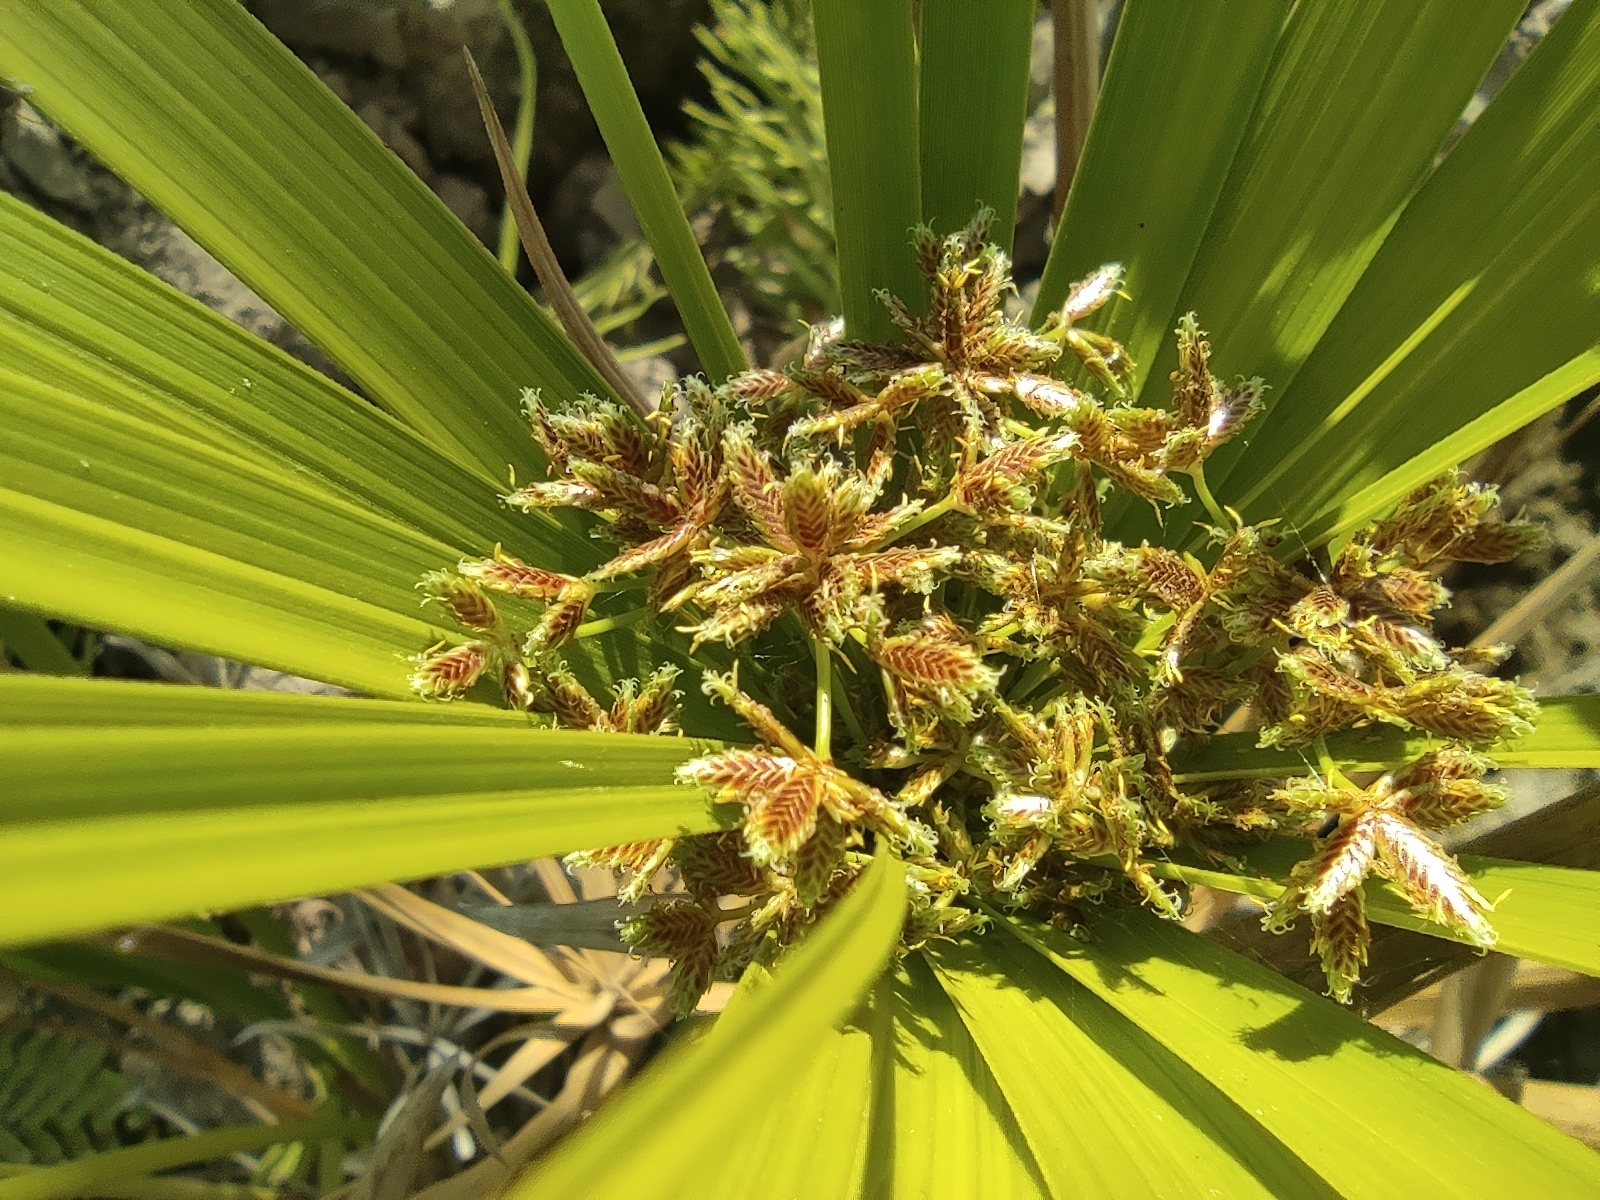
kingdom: Plantae
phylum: Tracheophyta
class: Liliopsida
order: Poales
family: Cyperaceae
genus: Cyperus
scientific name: Cyperus alternifolius
